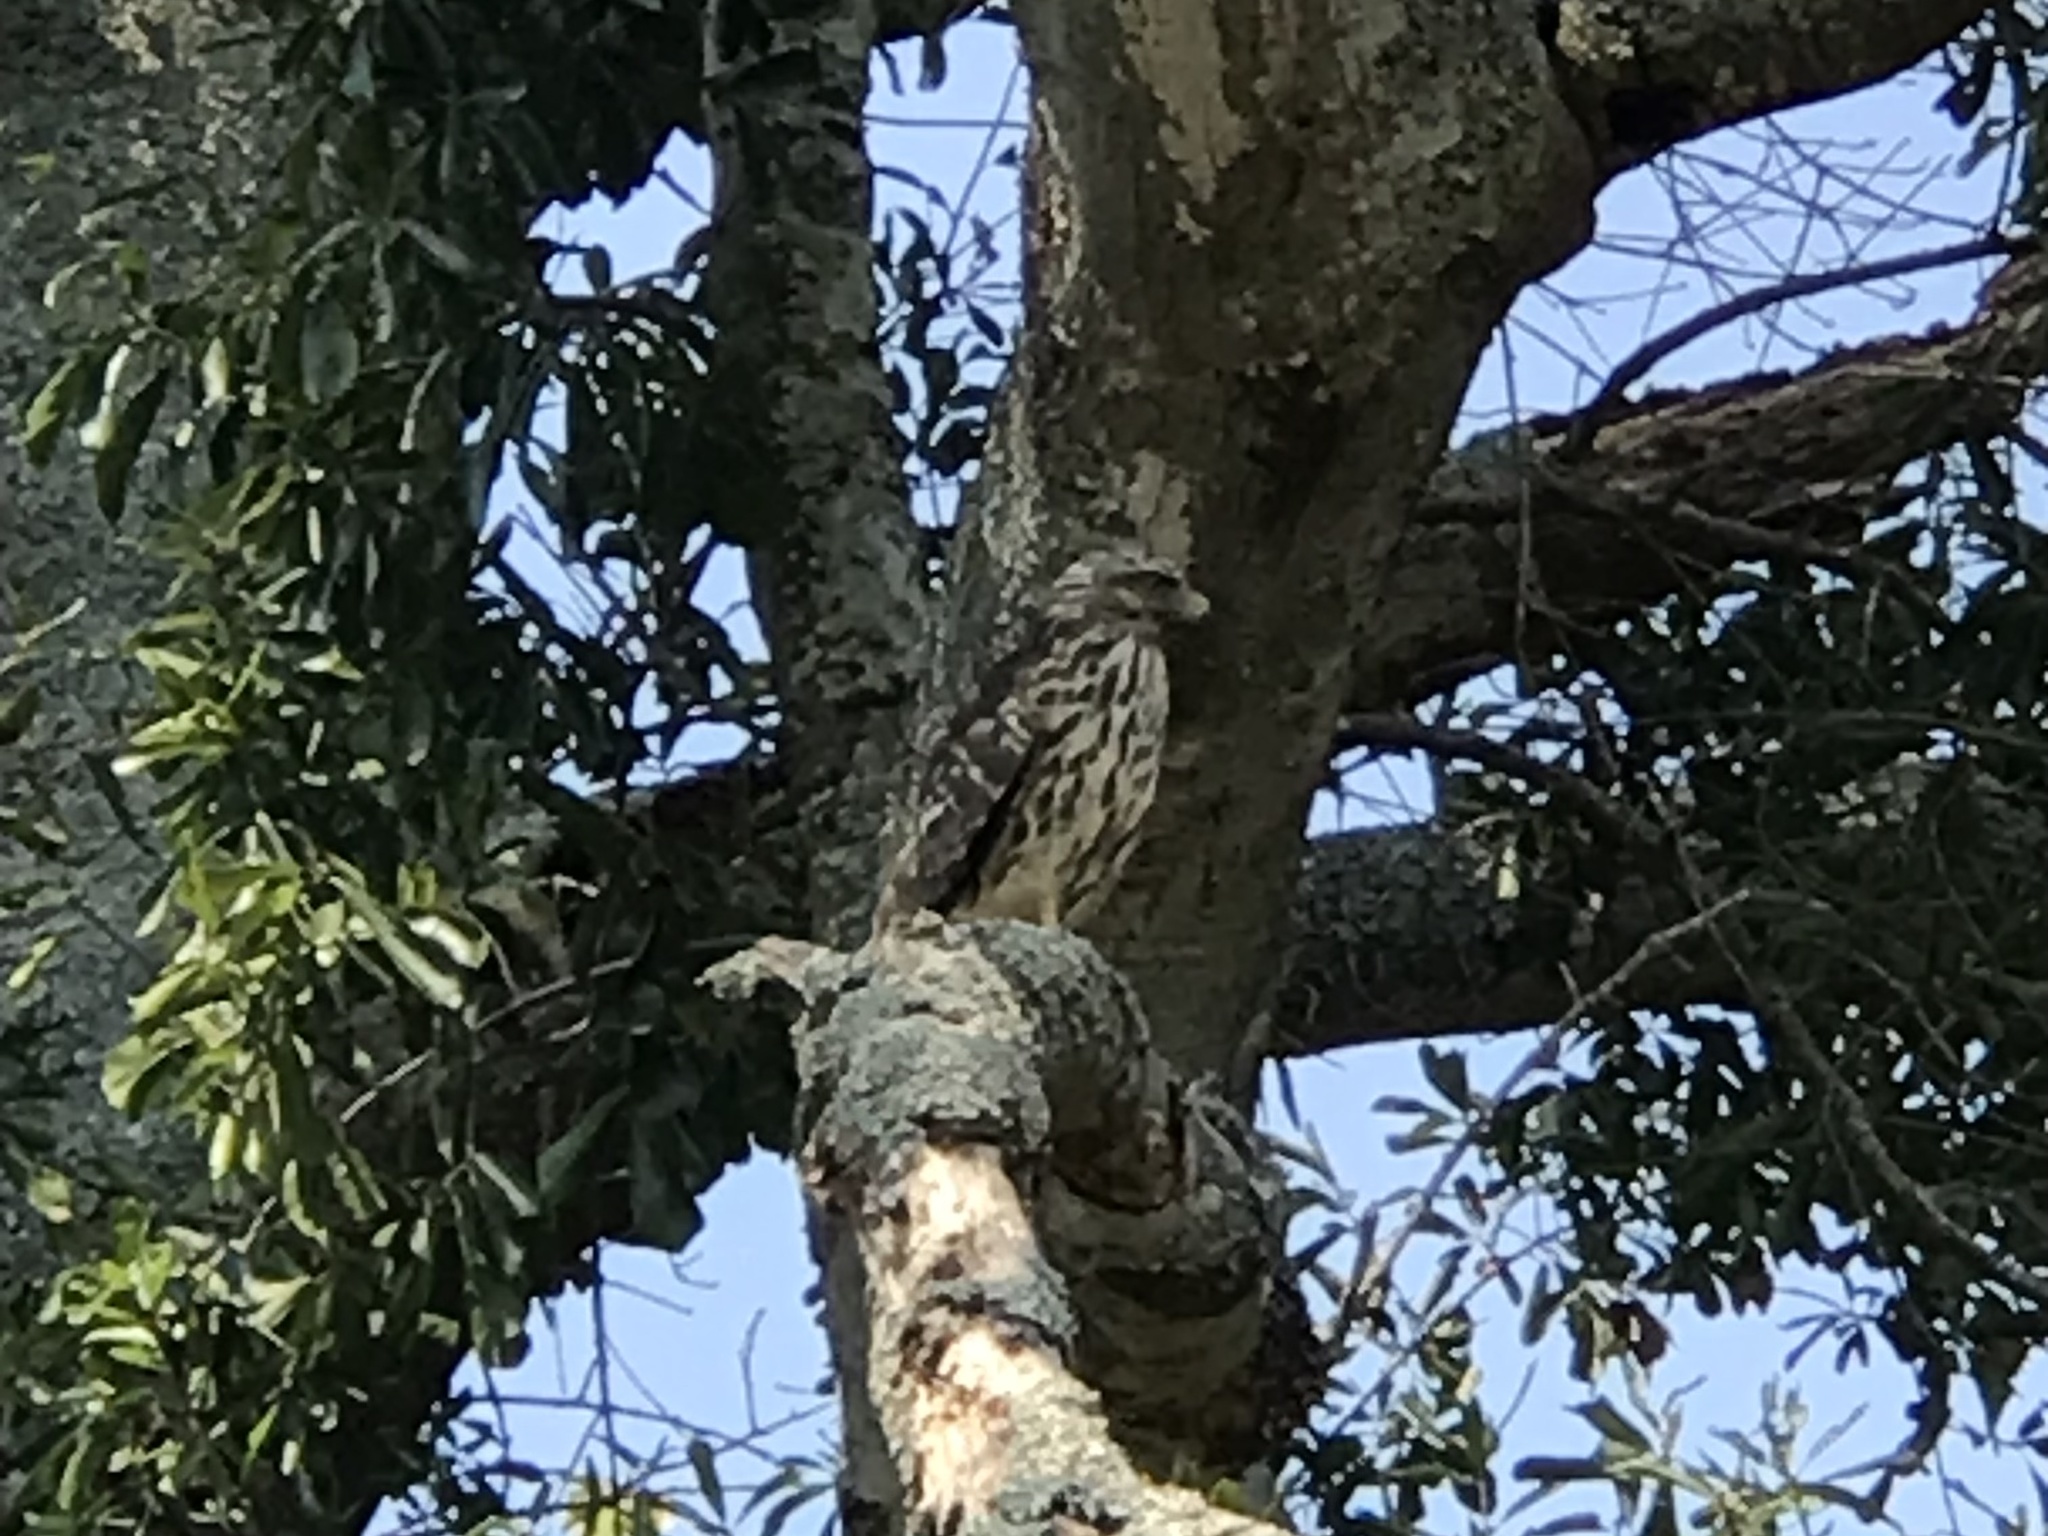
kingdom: Animalia
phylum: Chordata
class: Aves
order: Accipitriformes
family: Accipitridae
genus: Buteo
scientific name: Buteo lineatus
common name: Red-shouldered hawk
